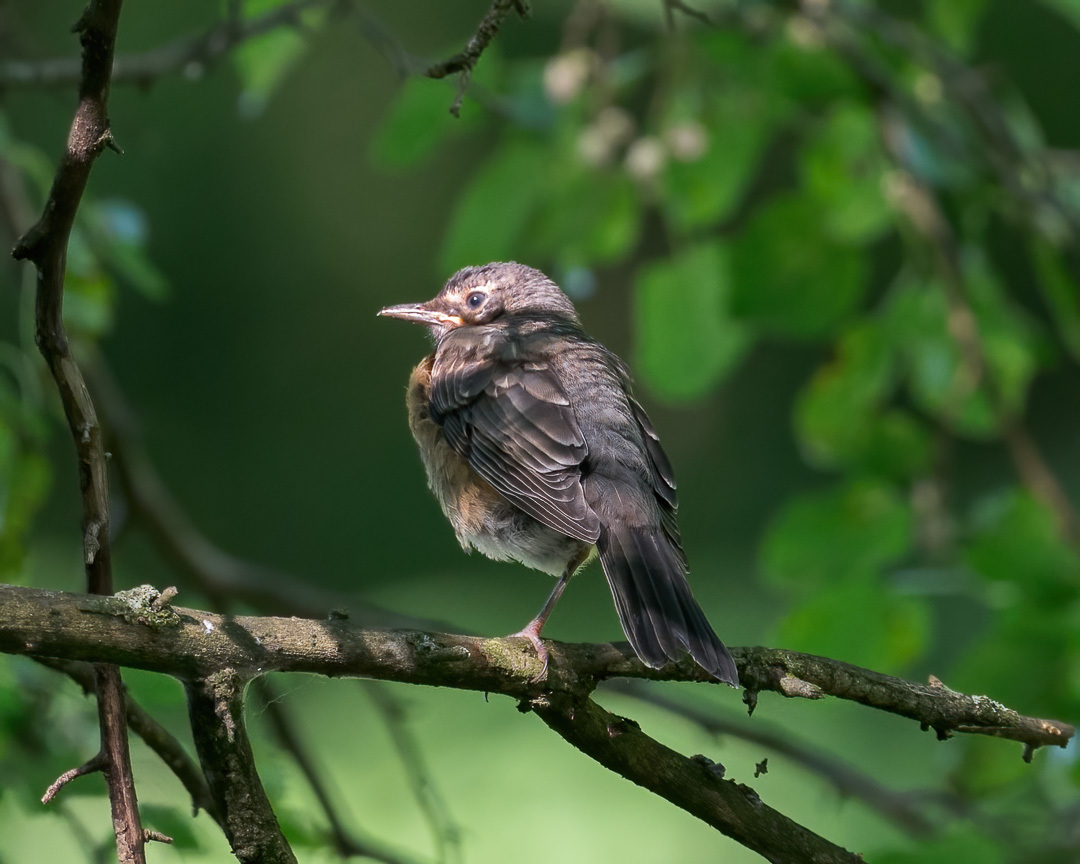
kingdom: Animalia
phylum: Chordata
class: Aves
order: Passeriformes
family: Turdidae
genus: Turdus
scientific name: Turdus migratorius
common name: American robin
